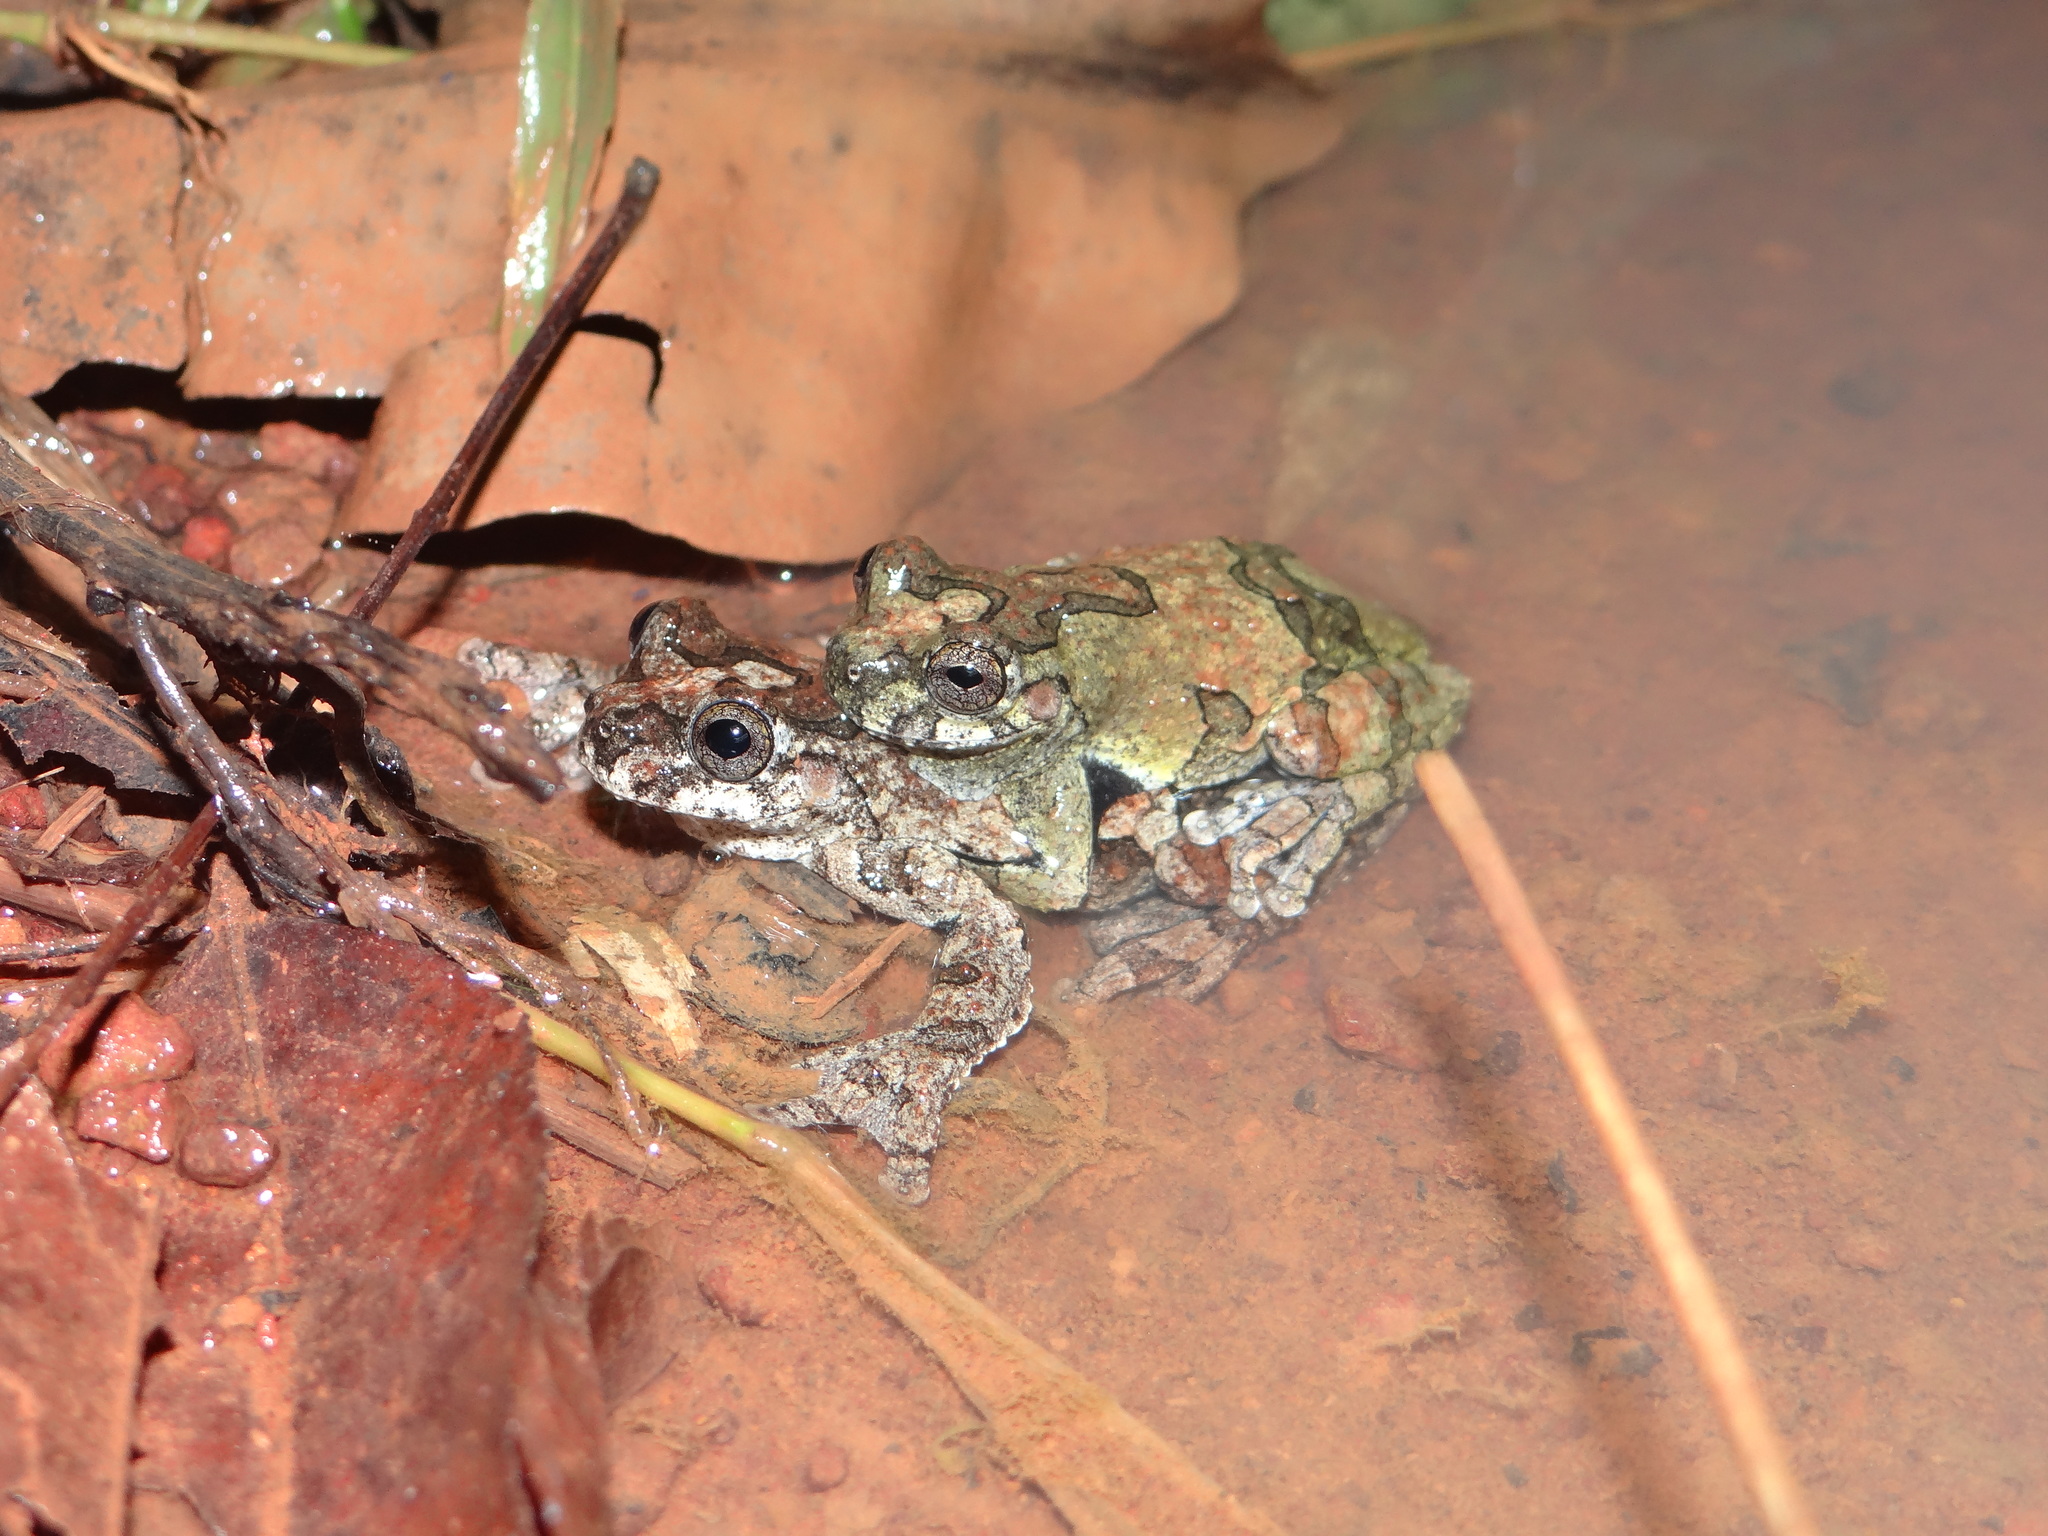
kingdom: Animalia
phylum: Chordata
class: Amphibia
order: Anura
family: Hylidae
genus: Dendropsophus
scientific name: Dendropsophus marmoratus
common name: Marbled treefrog
